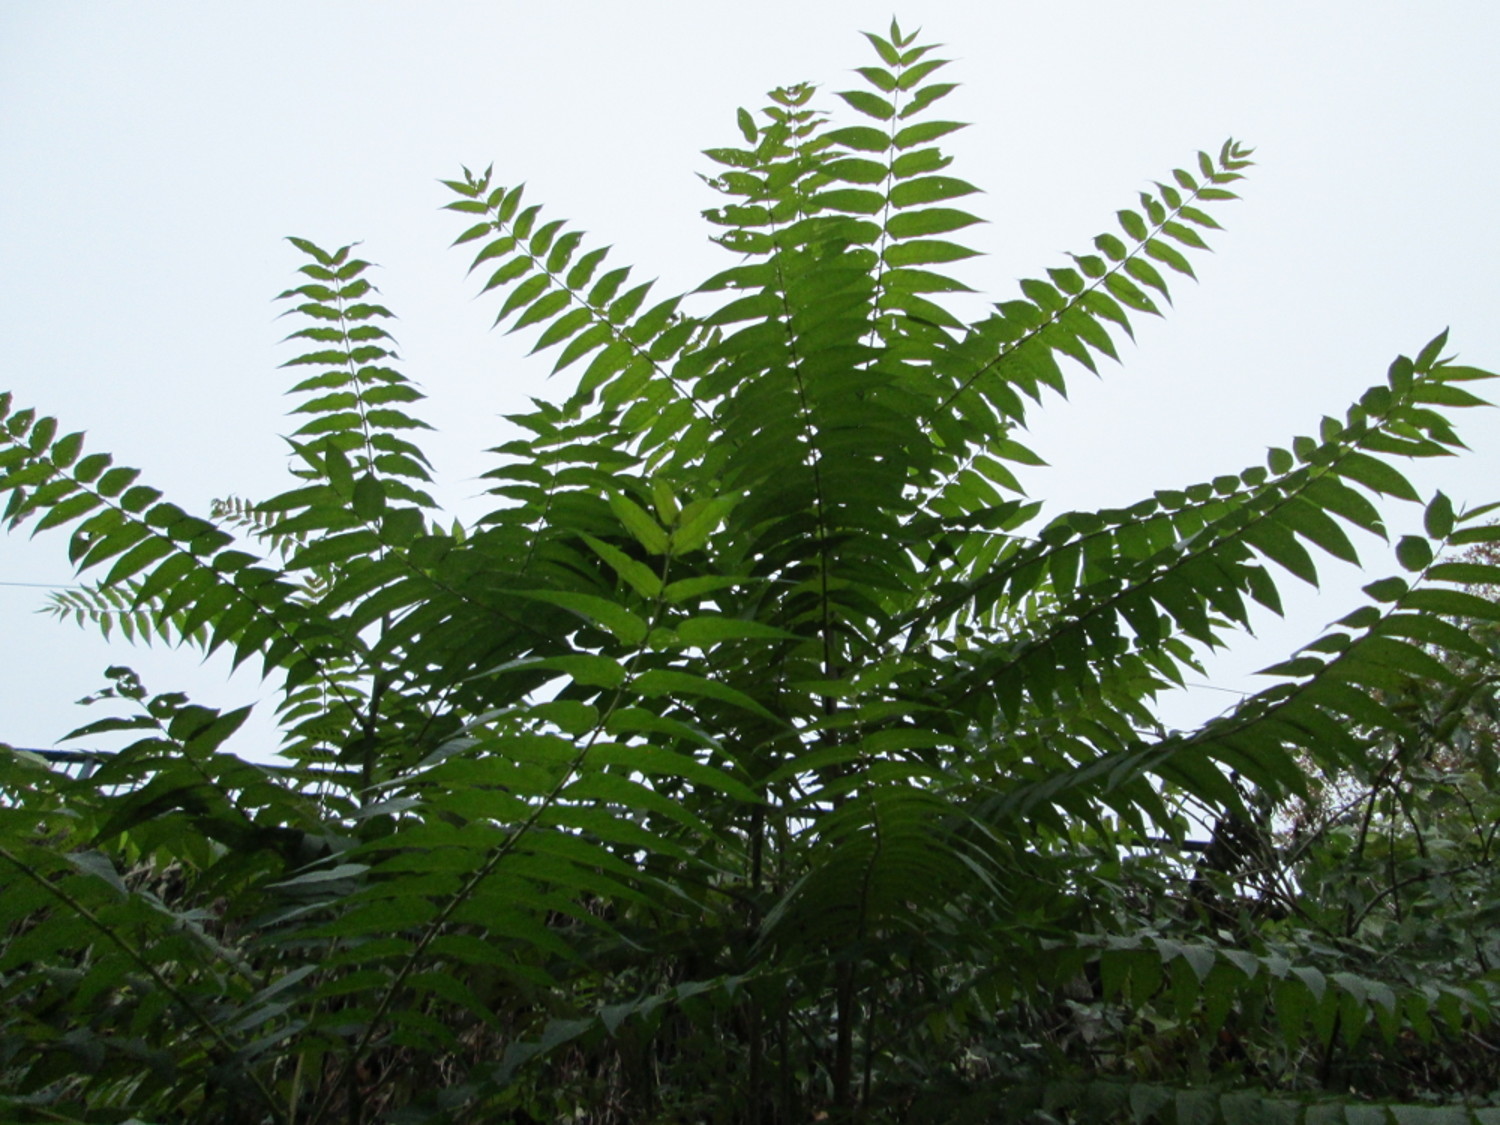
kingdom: Plantae
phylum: Tracheophyta
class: Magnoliopsida
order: Sapindales
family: Simaroubaceae
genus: Ailanthus
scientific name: Ailanthus altissima
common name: Tree-of-heaven
